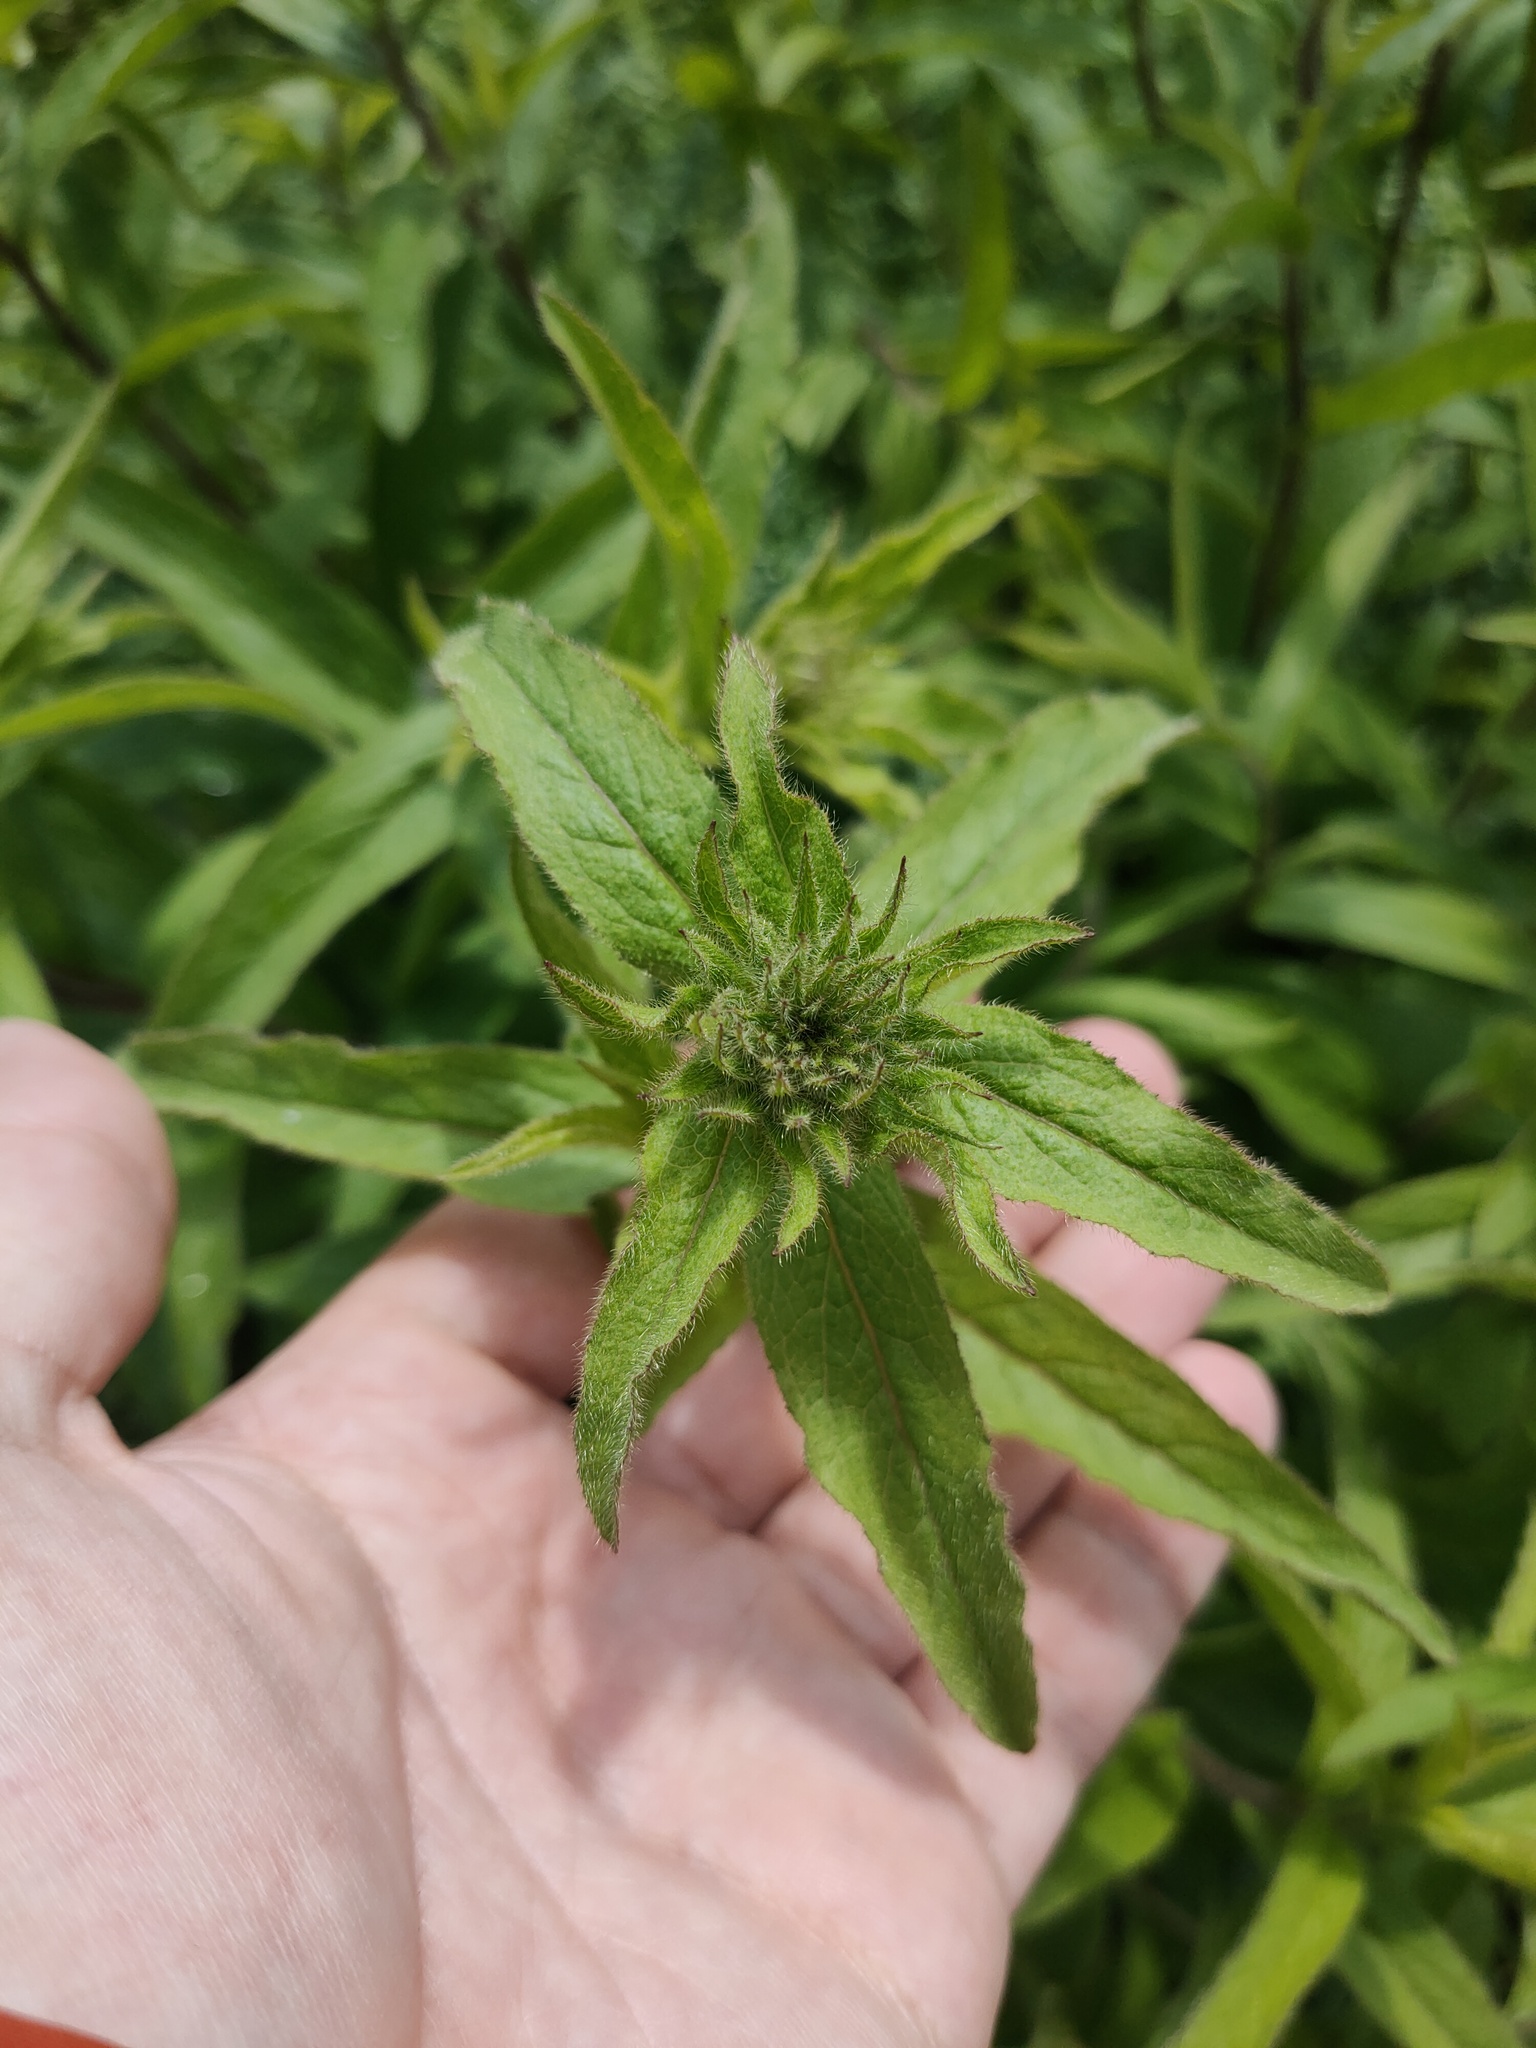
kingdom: Plantae
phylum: Tracheophyta
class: Magnoliopsida
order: Asterales
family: Asteraceae
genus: Pentanema
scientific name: Pentanema hirtum
